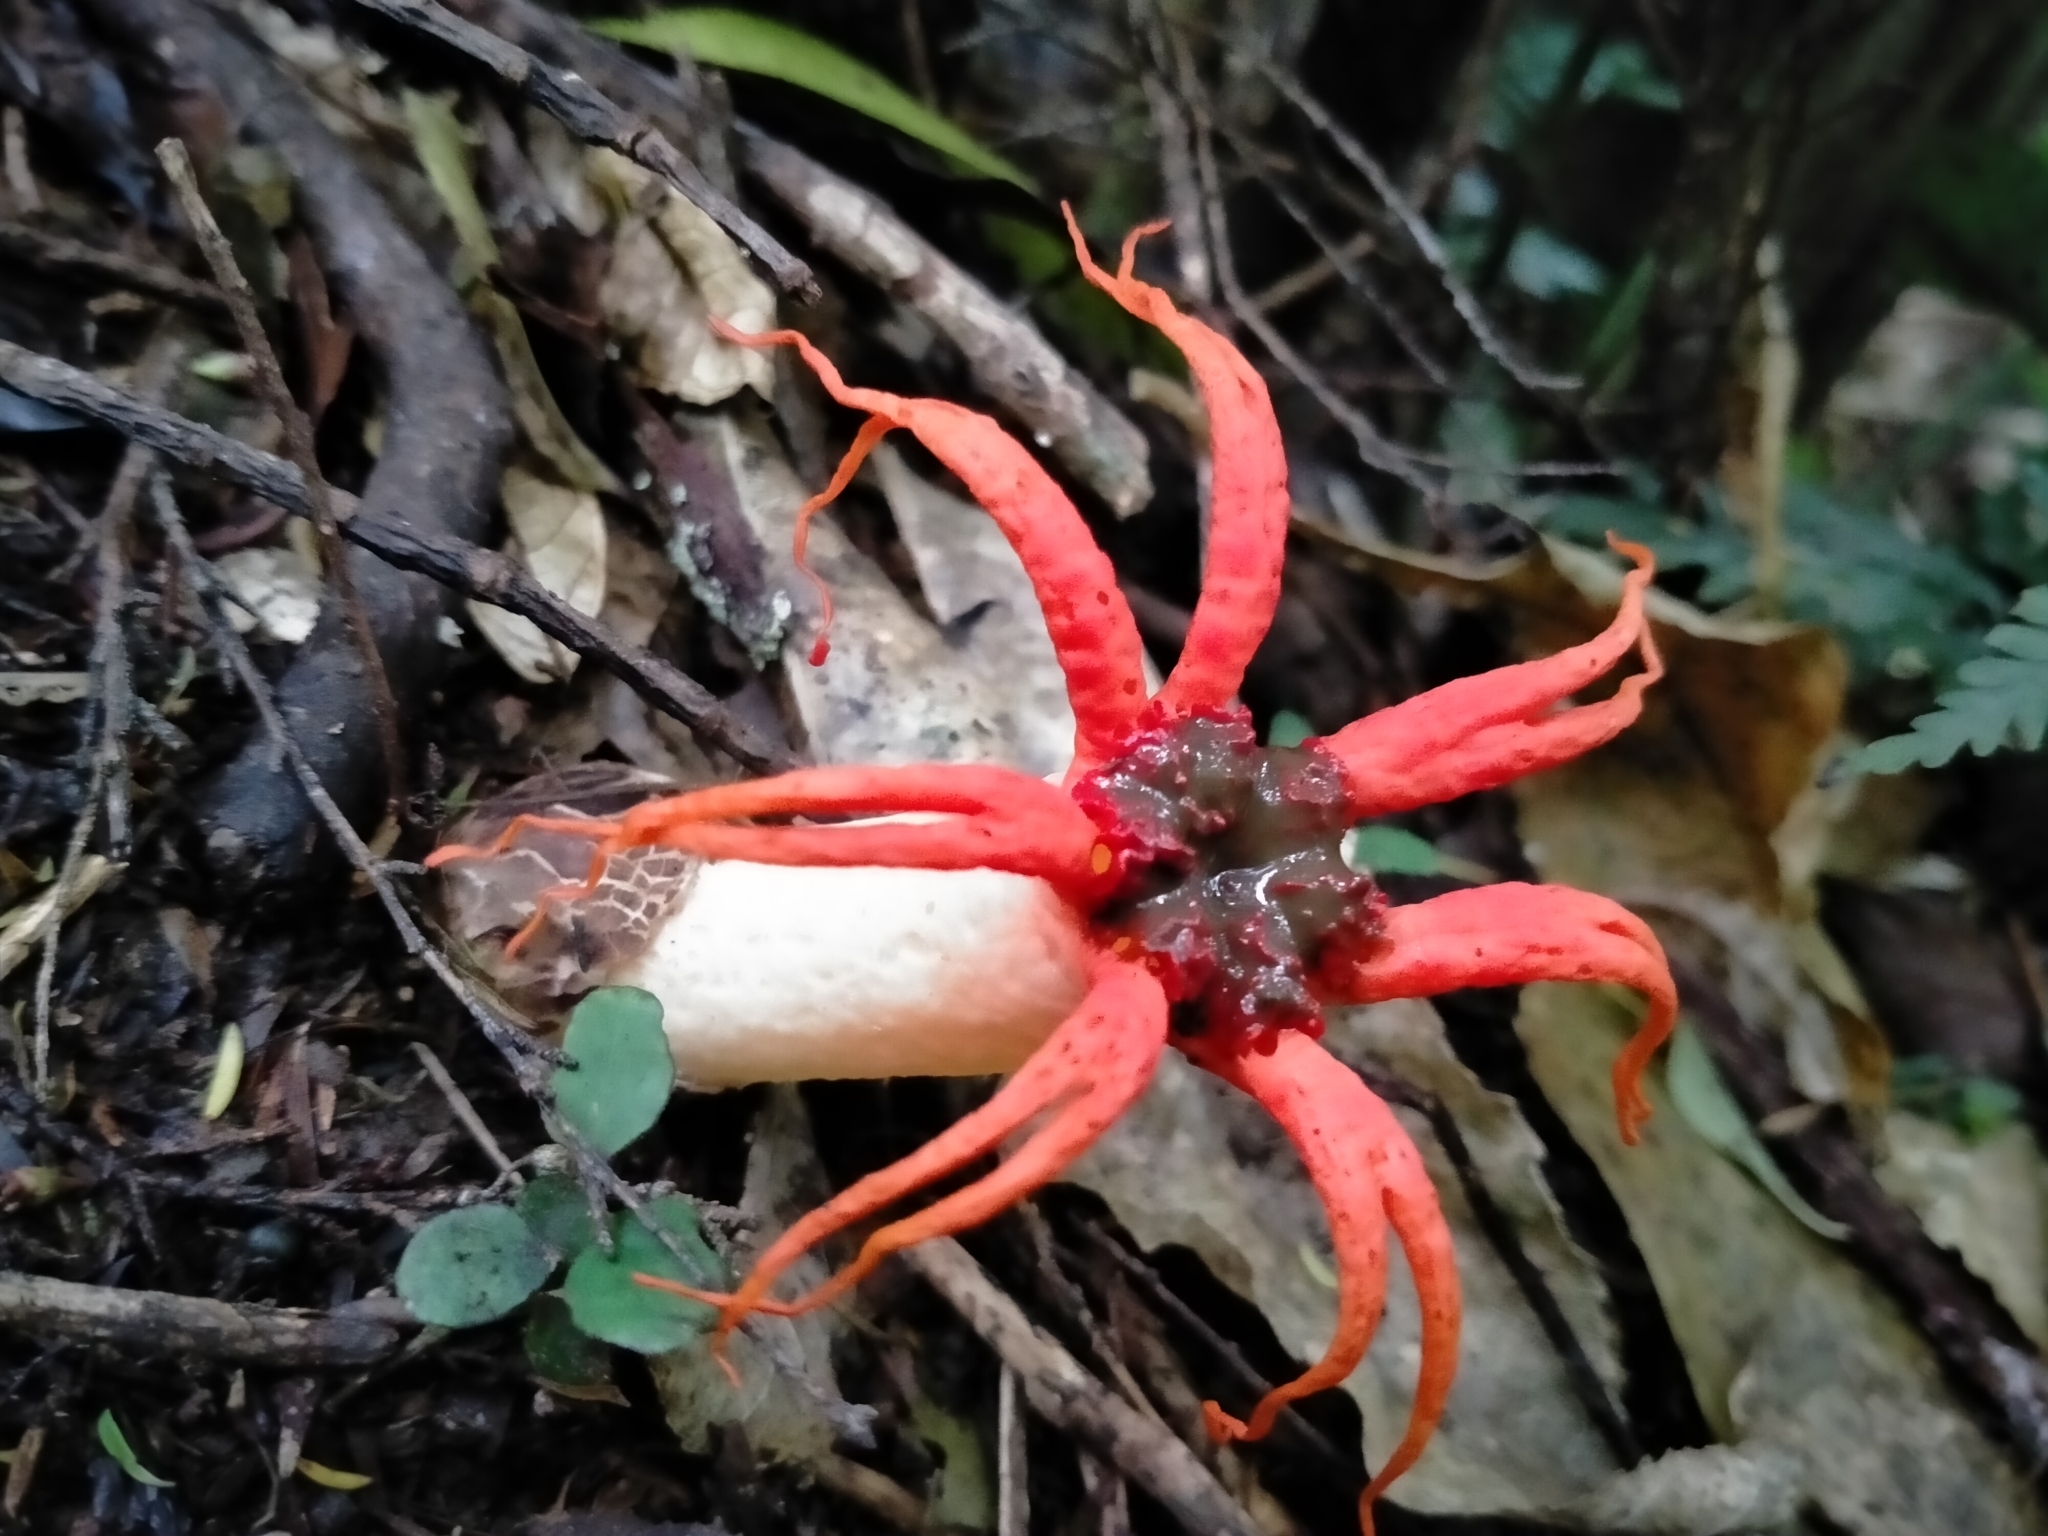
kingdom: Fungi
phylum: Basidiomycota
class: Agaricomycetes
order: Phallales
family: Phallaceae
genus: Aseroe
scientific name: Aseroe rubra
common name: Starfish fungus
